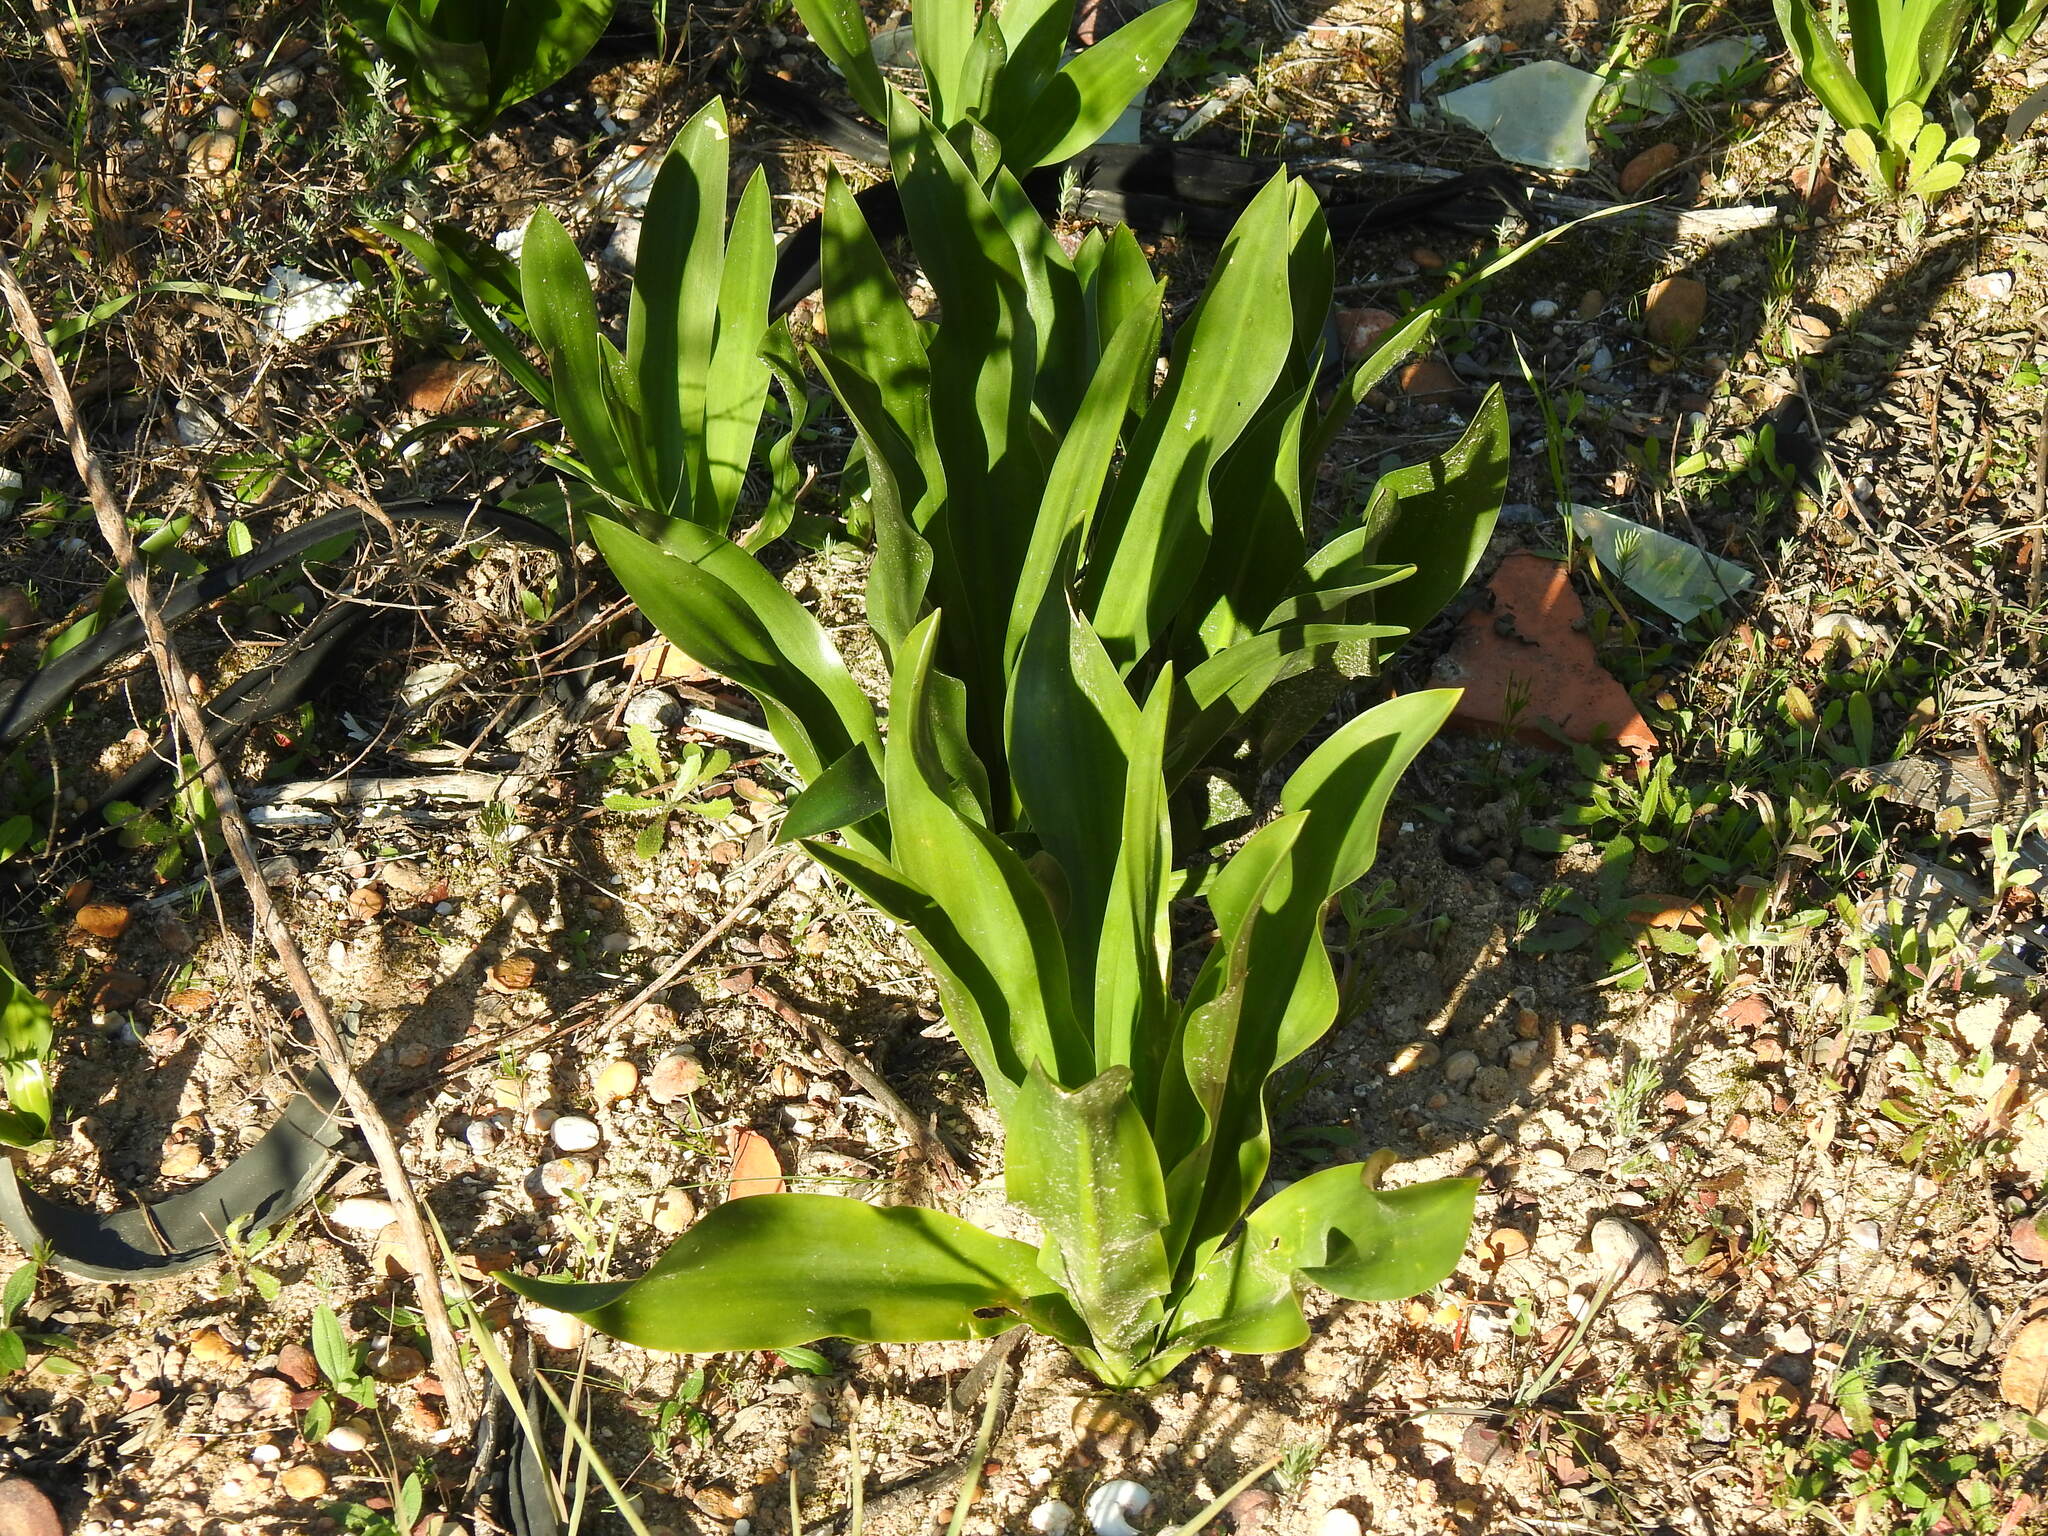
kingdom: Plantae
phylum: Tracheophyta
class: Liliopsida
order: Asparagales
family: Asparagaceae
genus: Drimia
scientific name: Drimia maritima
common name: Maritime squill
